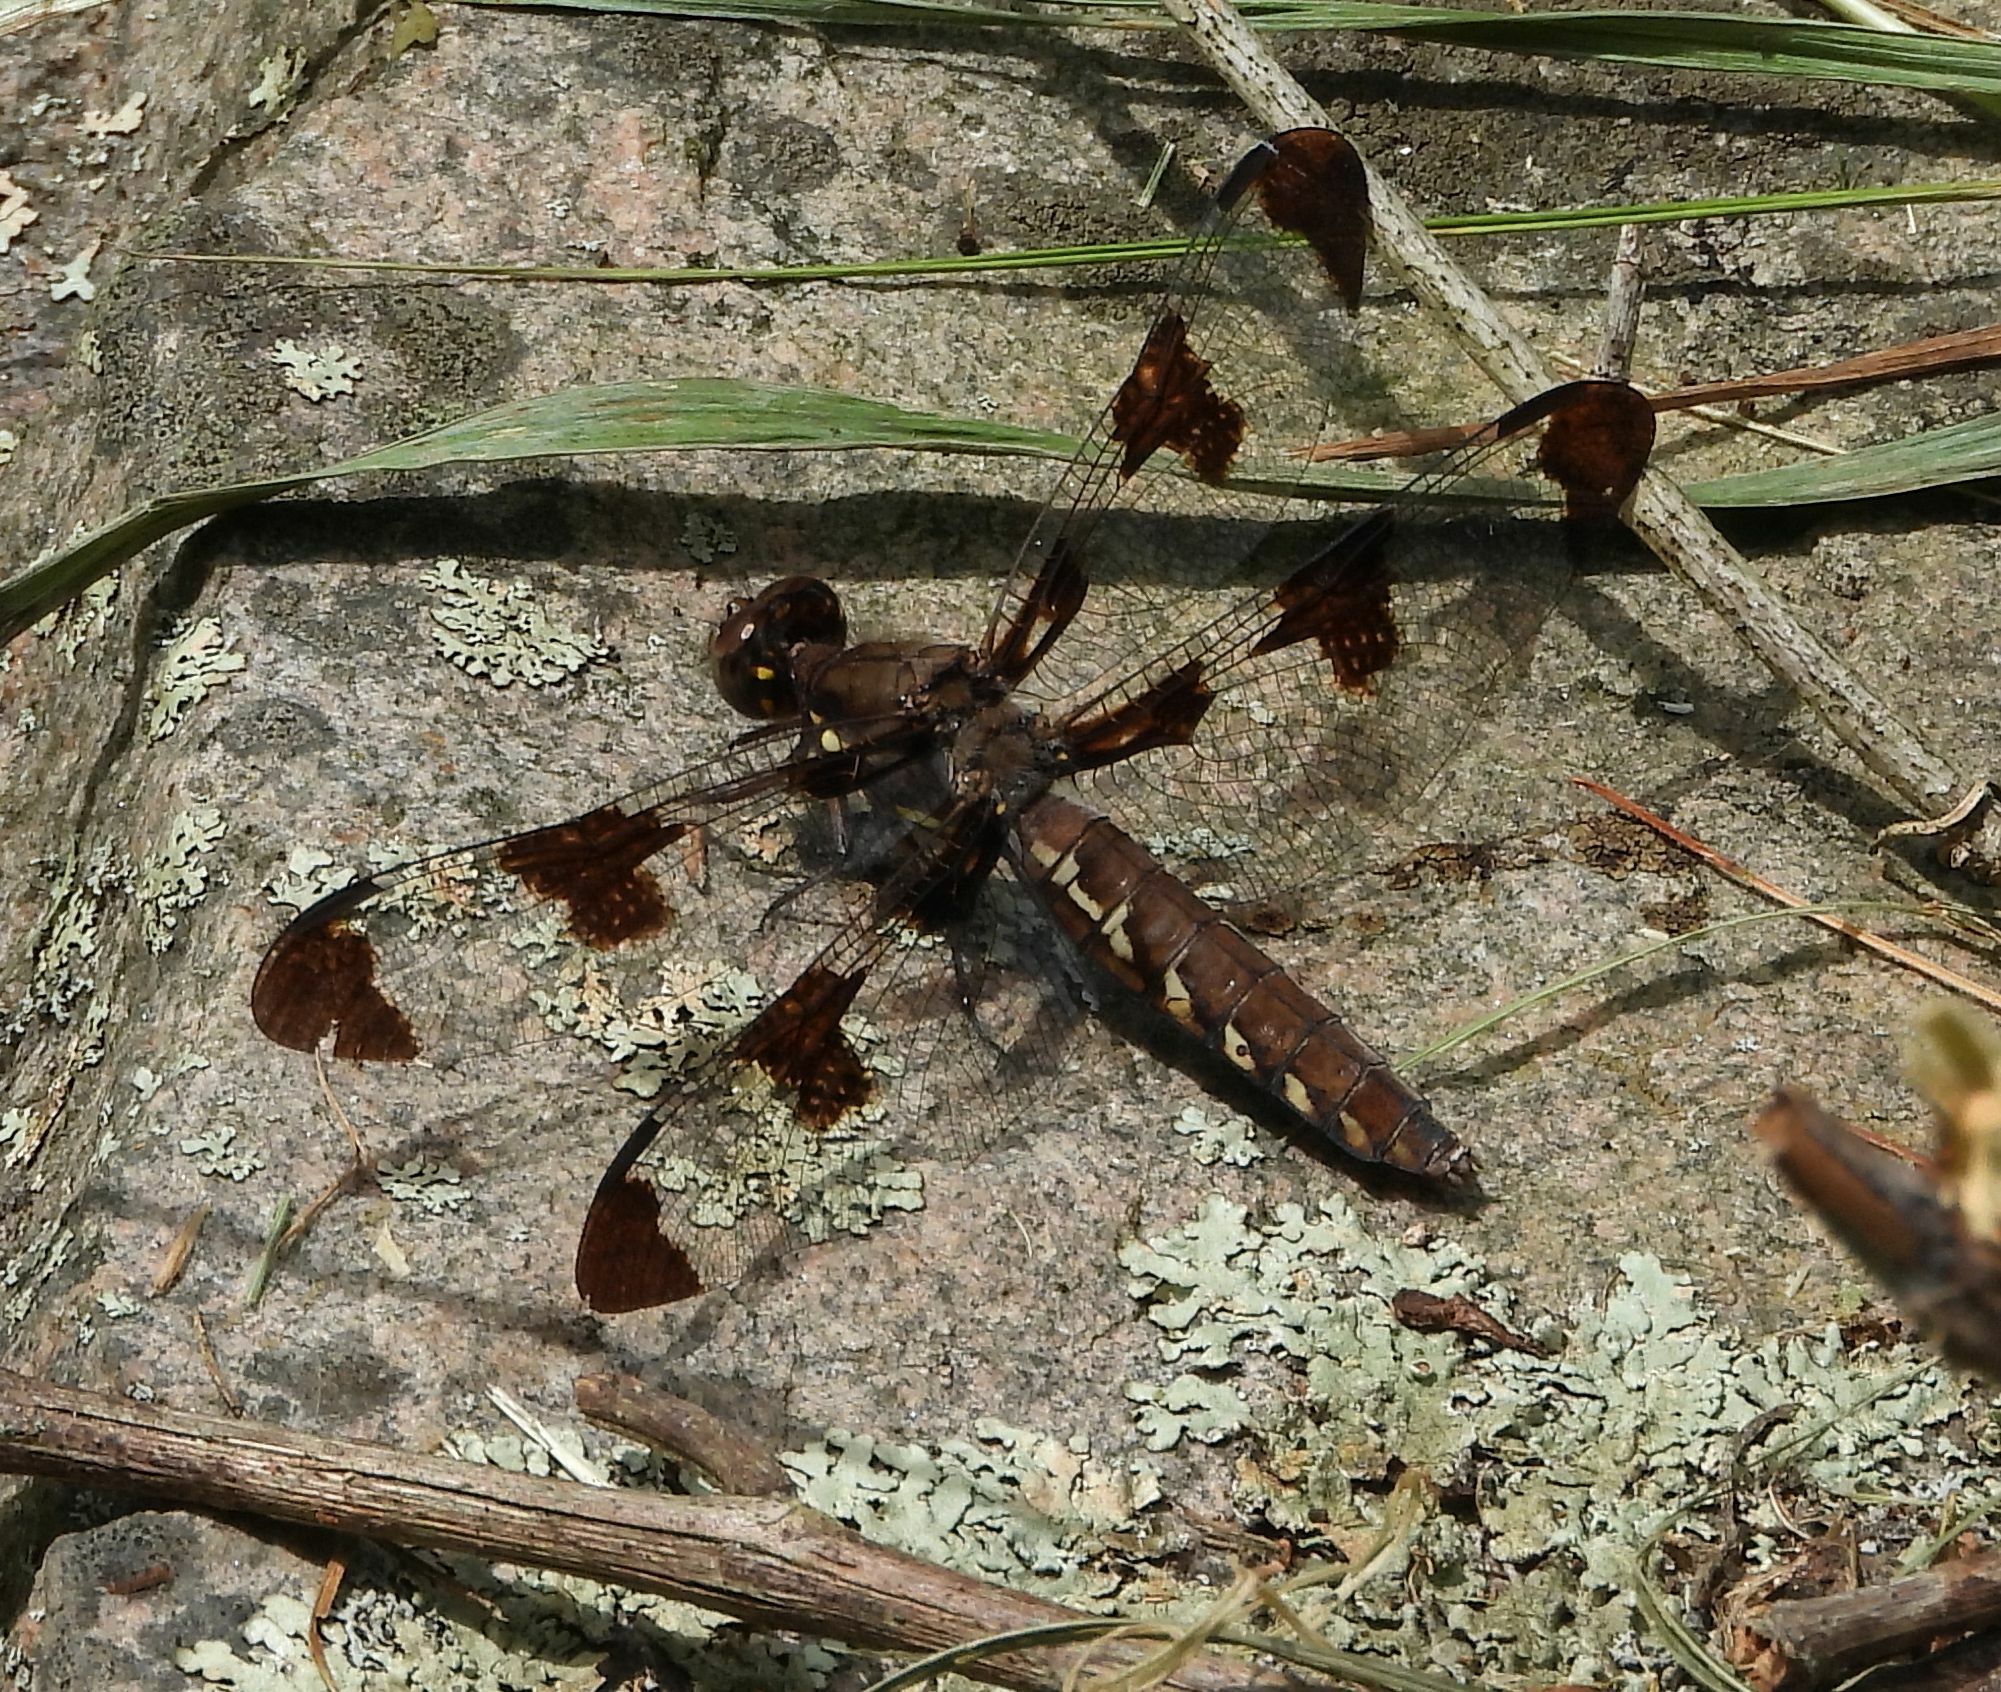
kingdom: Animalia
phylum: Arthropoda
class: Insecta
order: Odonata
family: Libellulidae
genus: Plathemis
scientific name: Plathemis lydia
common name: Common whitetail
